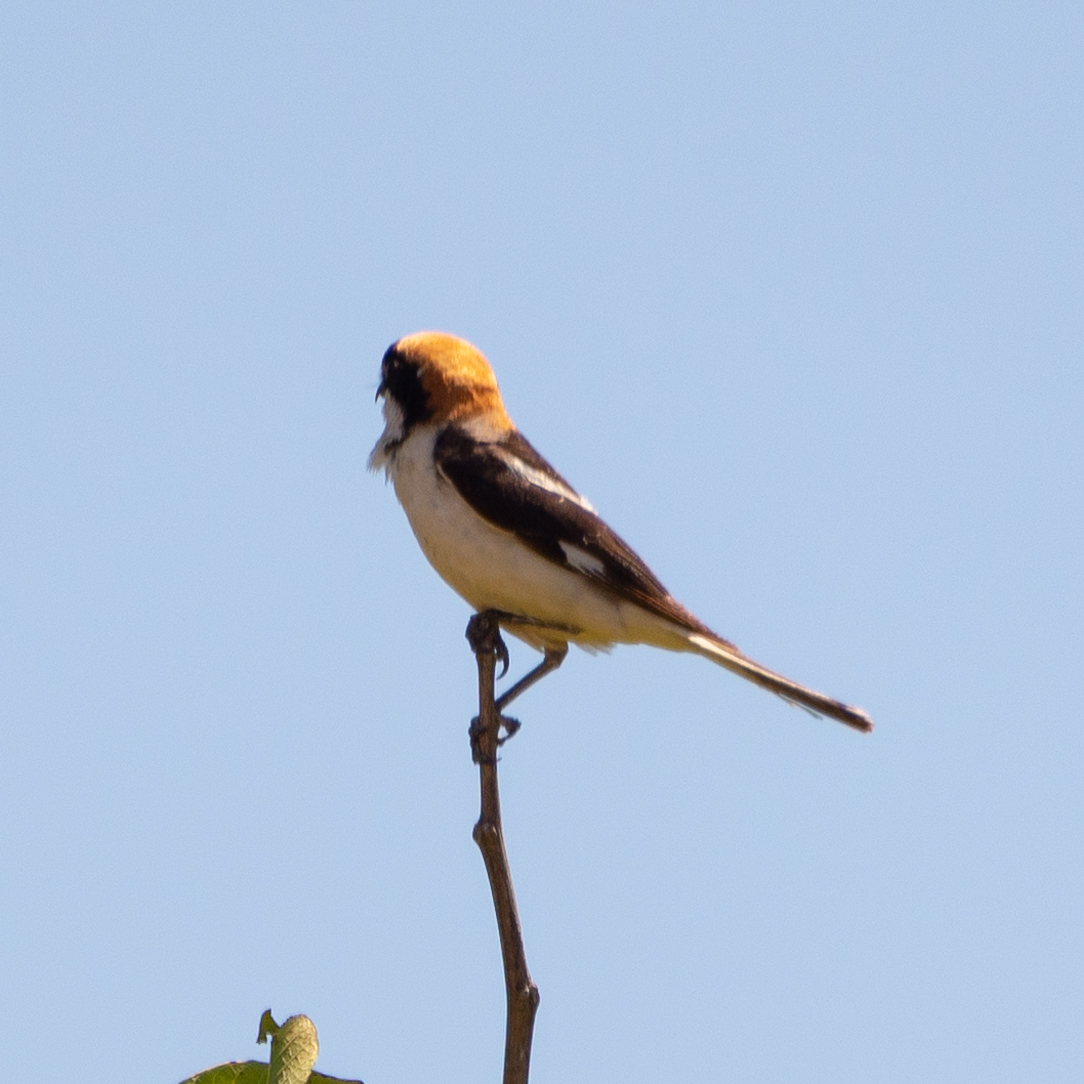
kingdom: Animalia
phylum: Chordata
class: Aves
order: Passeriformes
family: Laniidae
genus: Lanius
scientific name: Lanius senator
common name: Woodchat shrike
